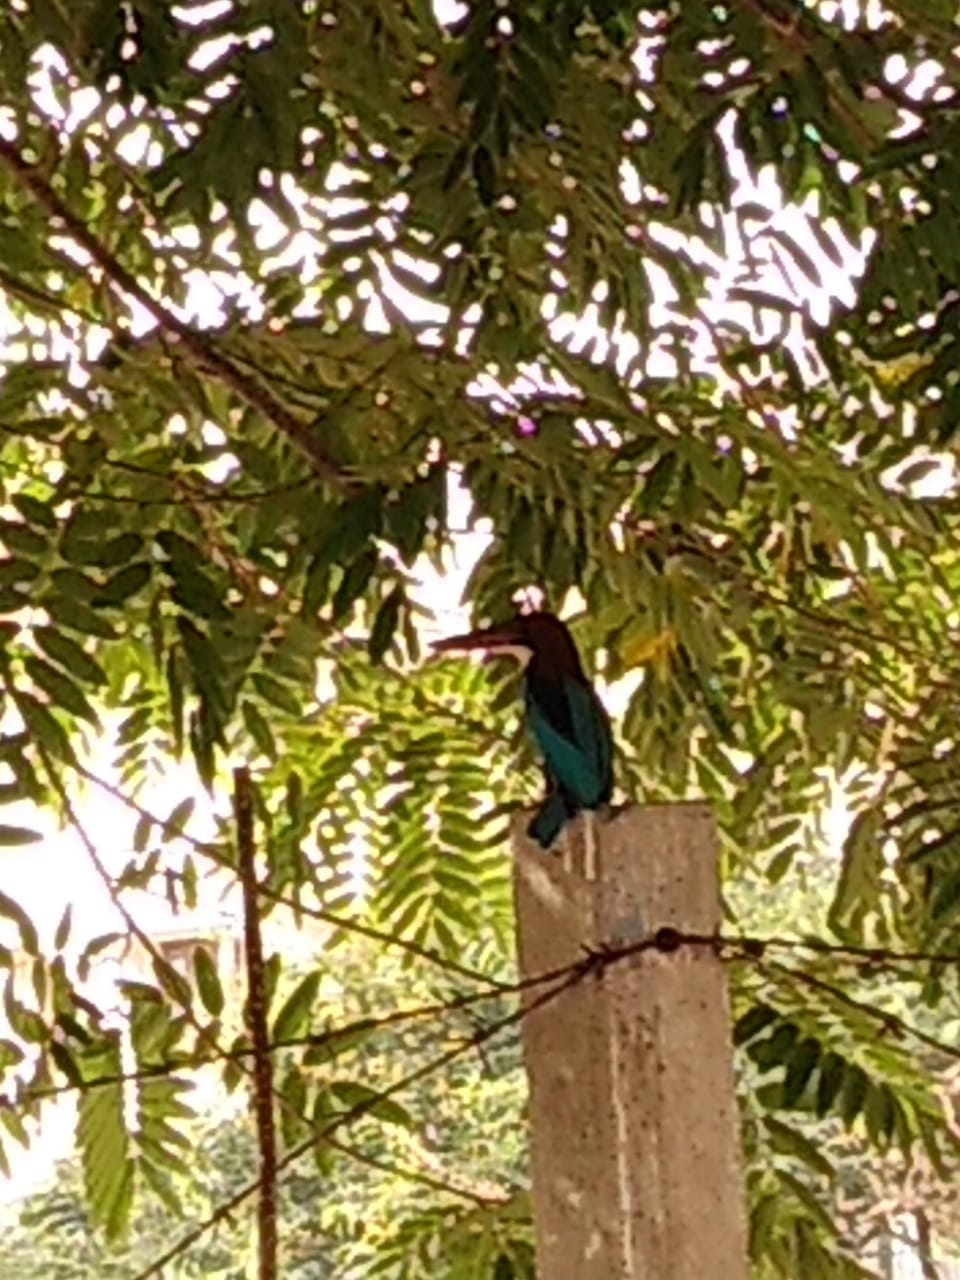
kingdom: Animalia
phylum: Chordata
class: Aves
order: Coraciiformes
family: Alcedinidae
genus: Halcyon
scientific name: Halcyon smyrnensis
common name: White-throated kingfisher
